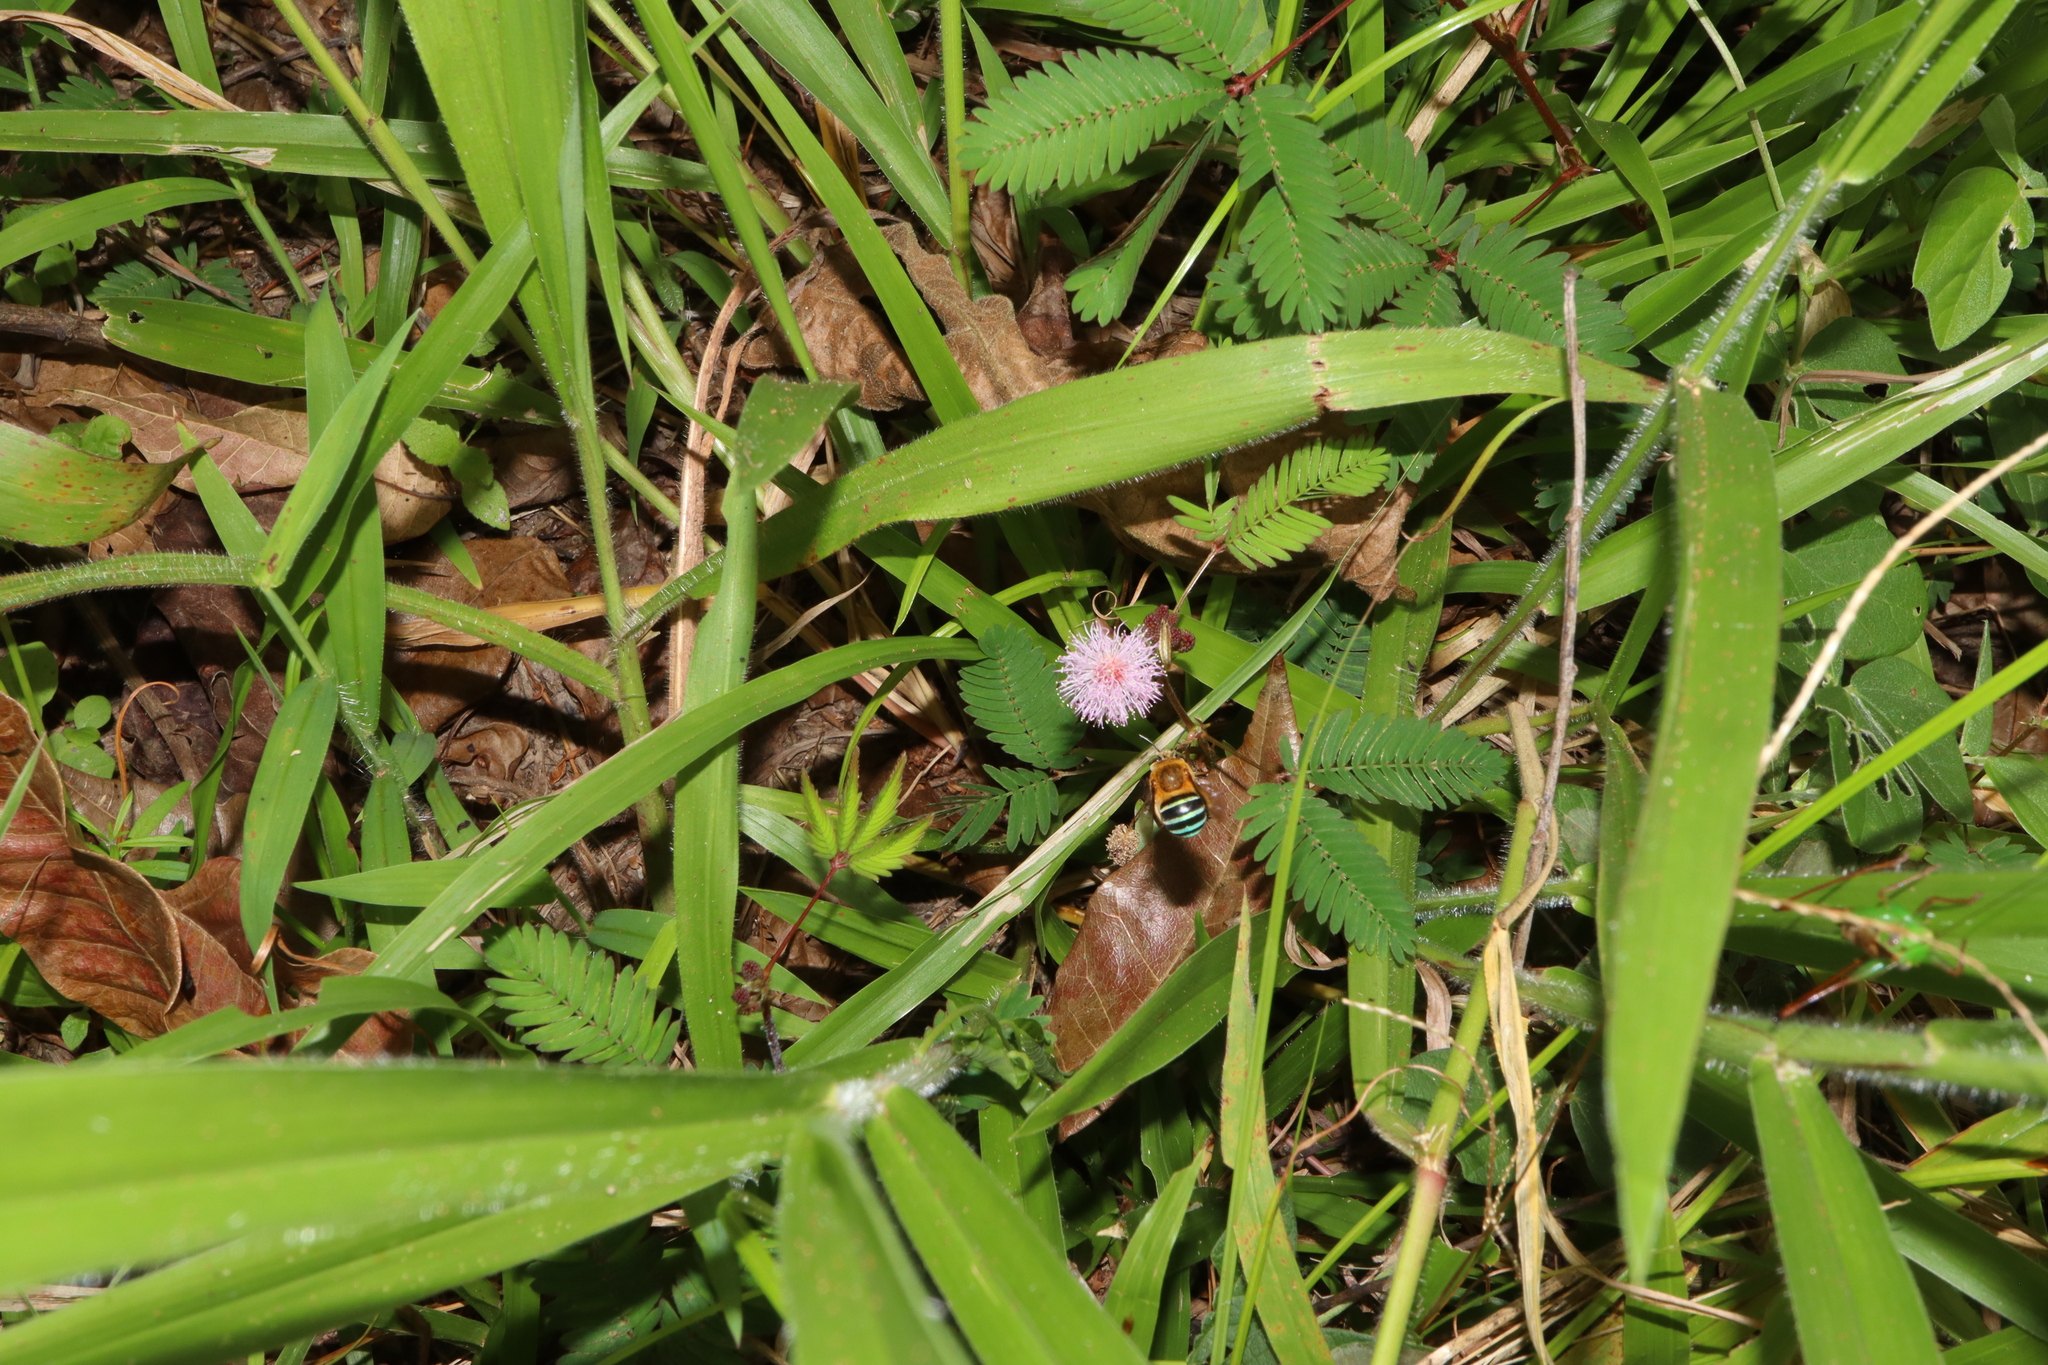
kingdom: Plantae
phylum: Tracheophyta
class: Magnoliopsida
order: Fabales
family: Fabaceae
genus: Mimosa
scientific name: Mimosa pudica
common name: Sensitive plant
